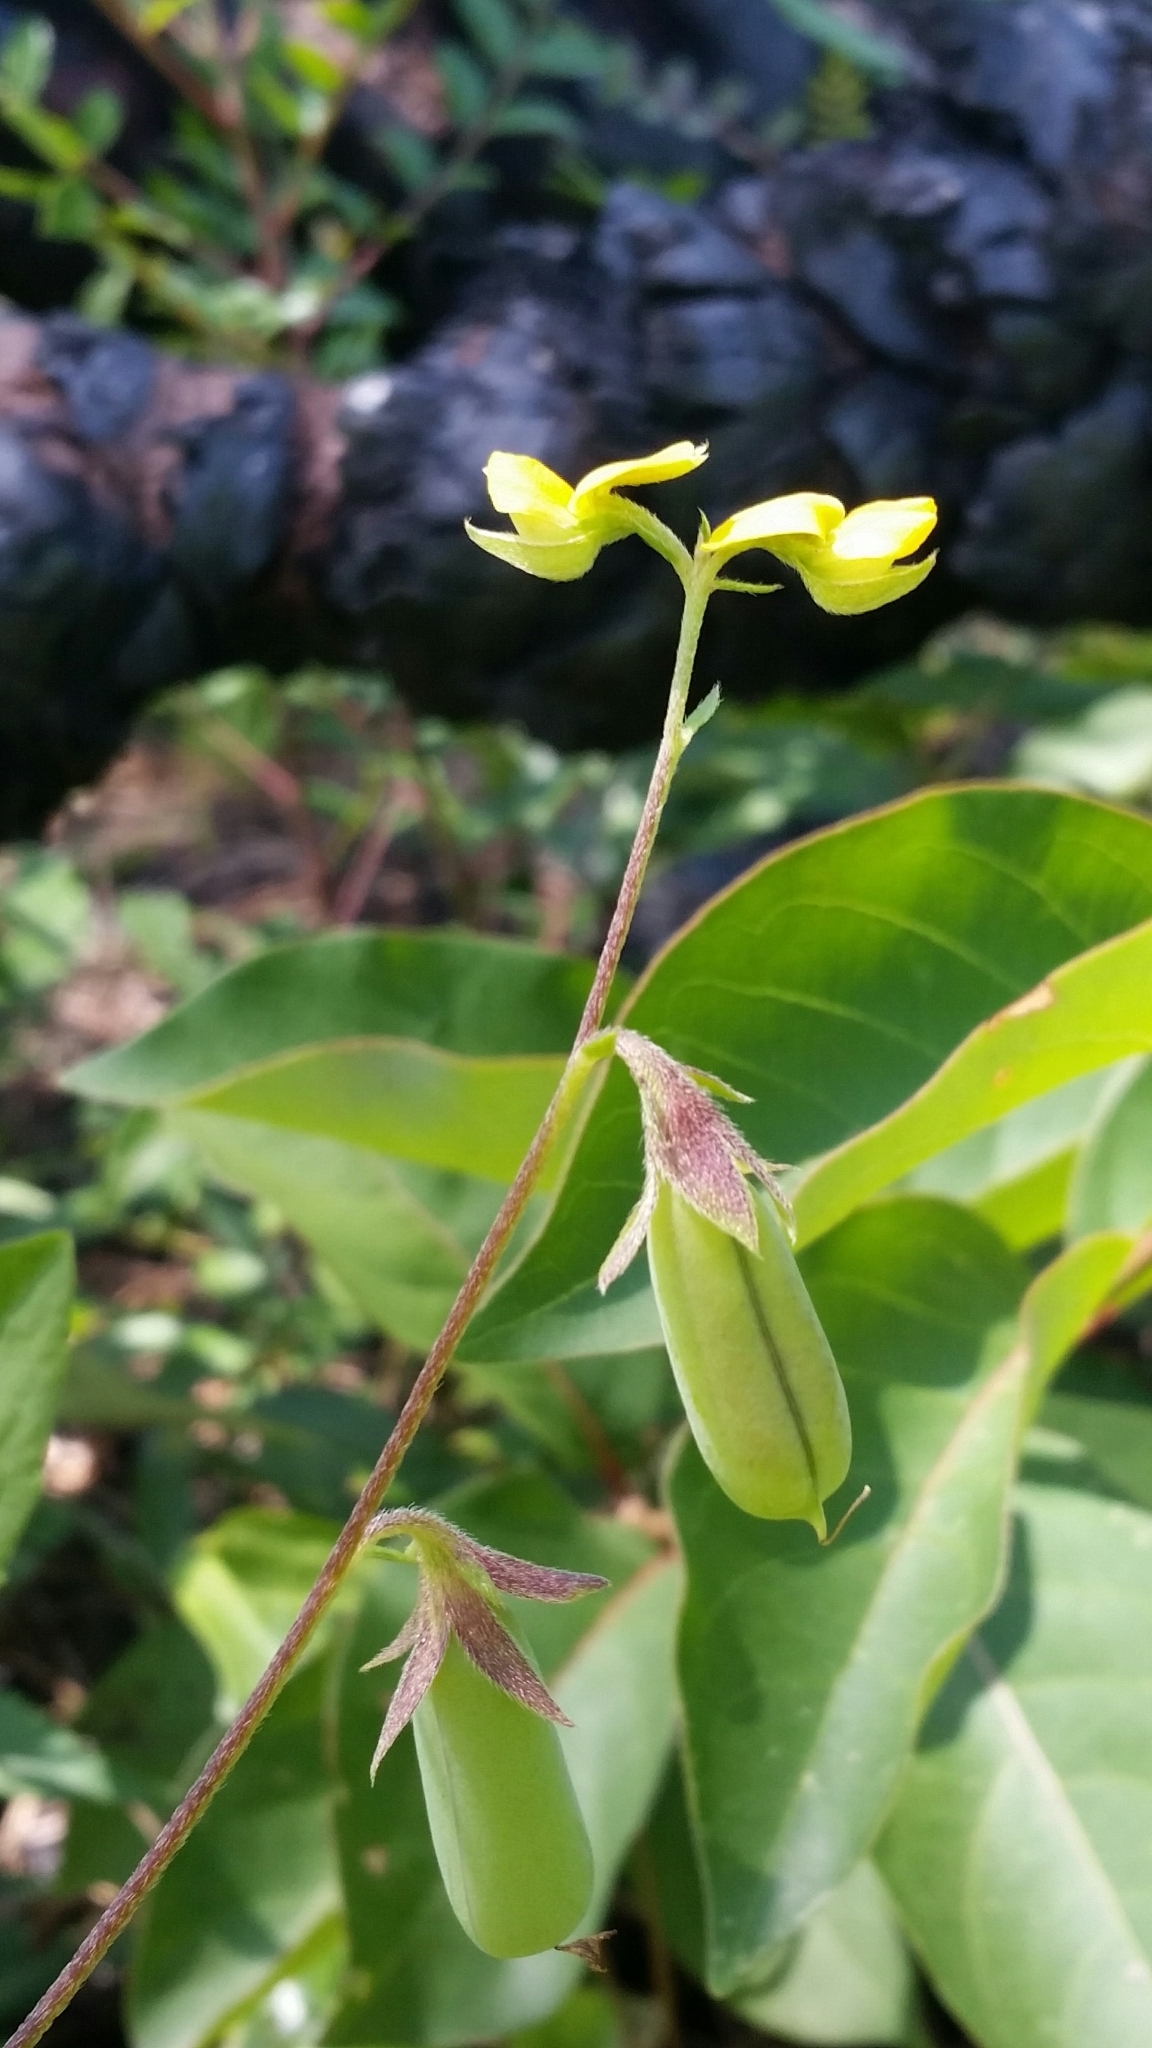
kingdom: Plantae
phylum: Tracheophyta
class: Magnoliopsida
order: Fabales
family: Fabaceae
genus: Crotalaria
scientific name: Crotalaria rotundifolia
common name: Prostrate rattlebox
